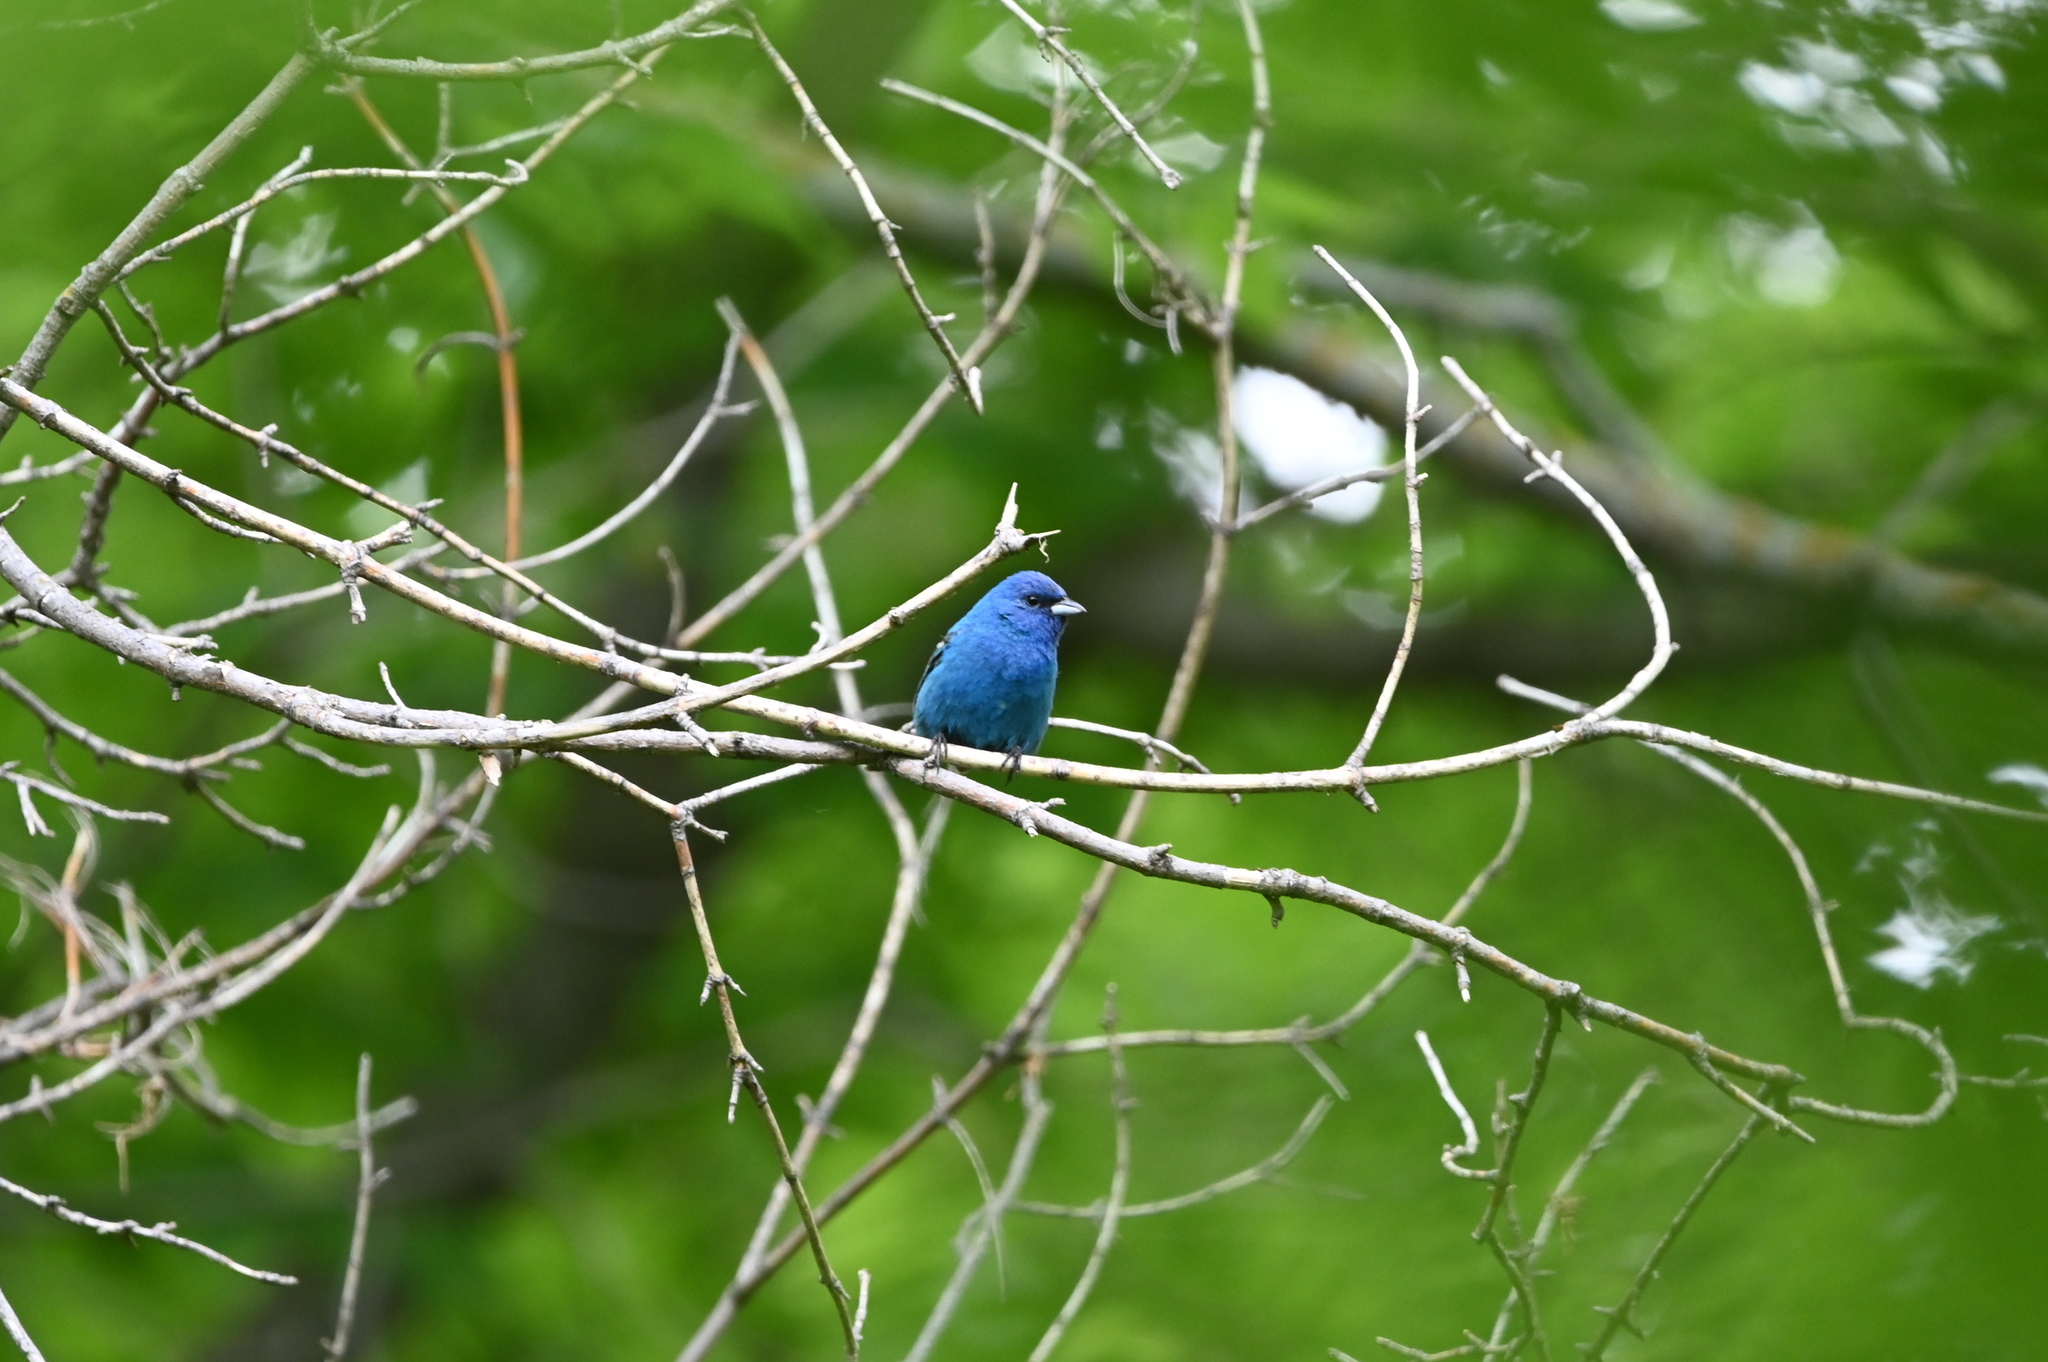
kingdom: Animalia
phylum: Chordata
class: Aves
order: Passeriformes
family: Cardinalidae
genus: Passerina
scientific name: Passerina cyanea
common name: Indigo bunting
